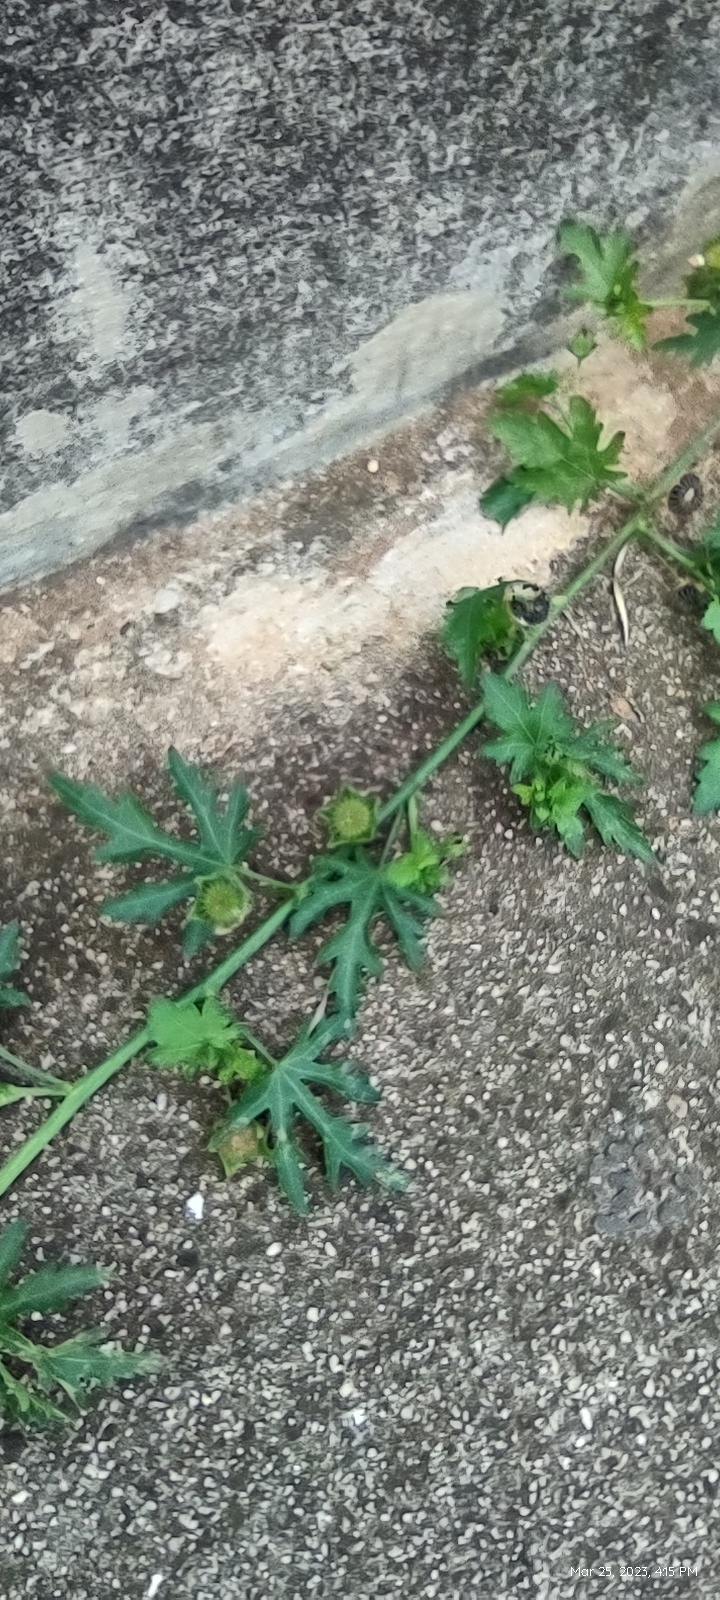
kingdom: Plantae
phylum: Tracheophyta
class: Magnoliopsida
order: Malvales
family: Malvaceae
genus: Modiola
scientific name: Modiola caroliniana
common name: Carolina bristlemallow
